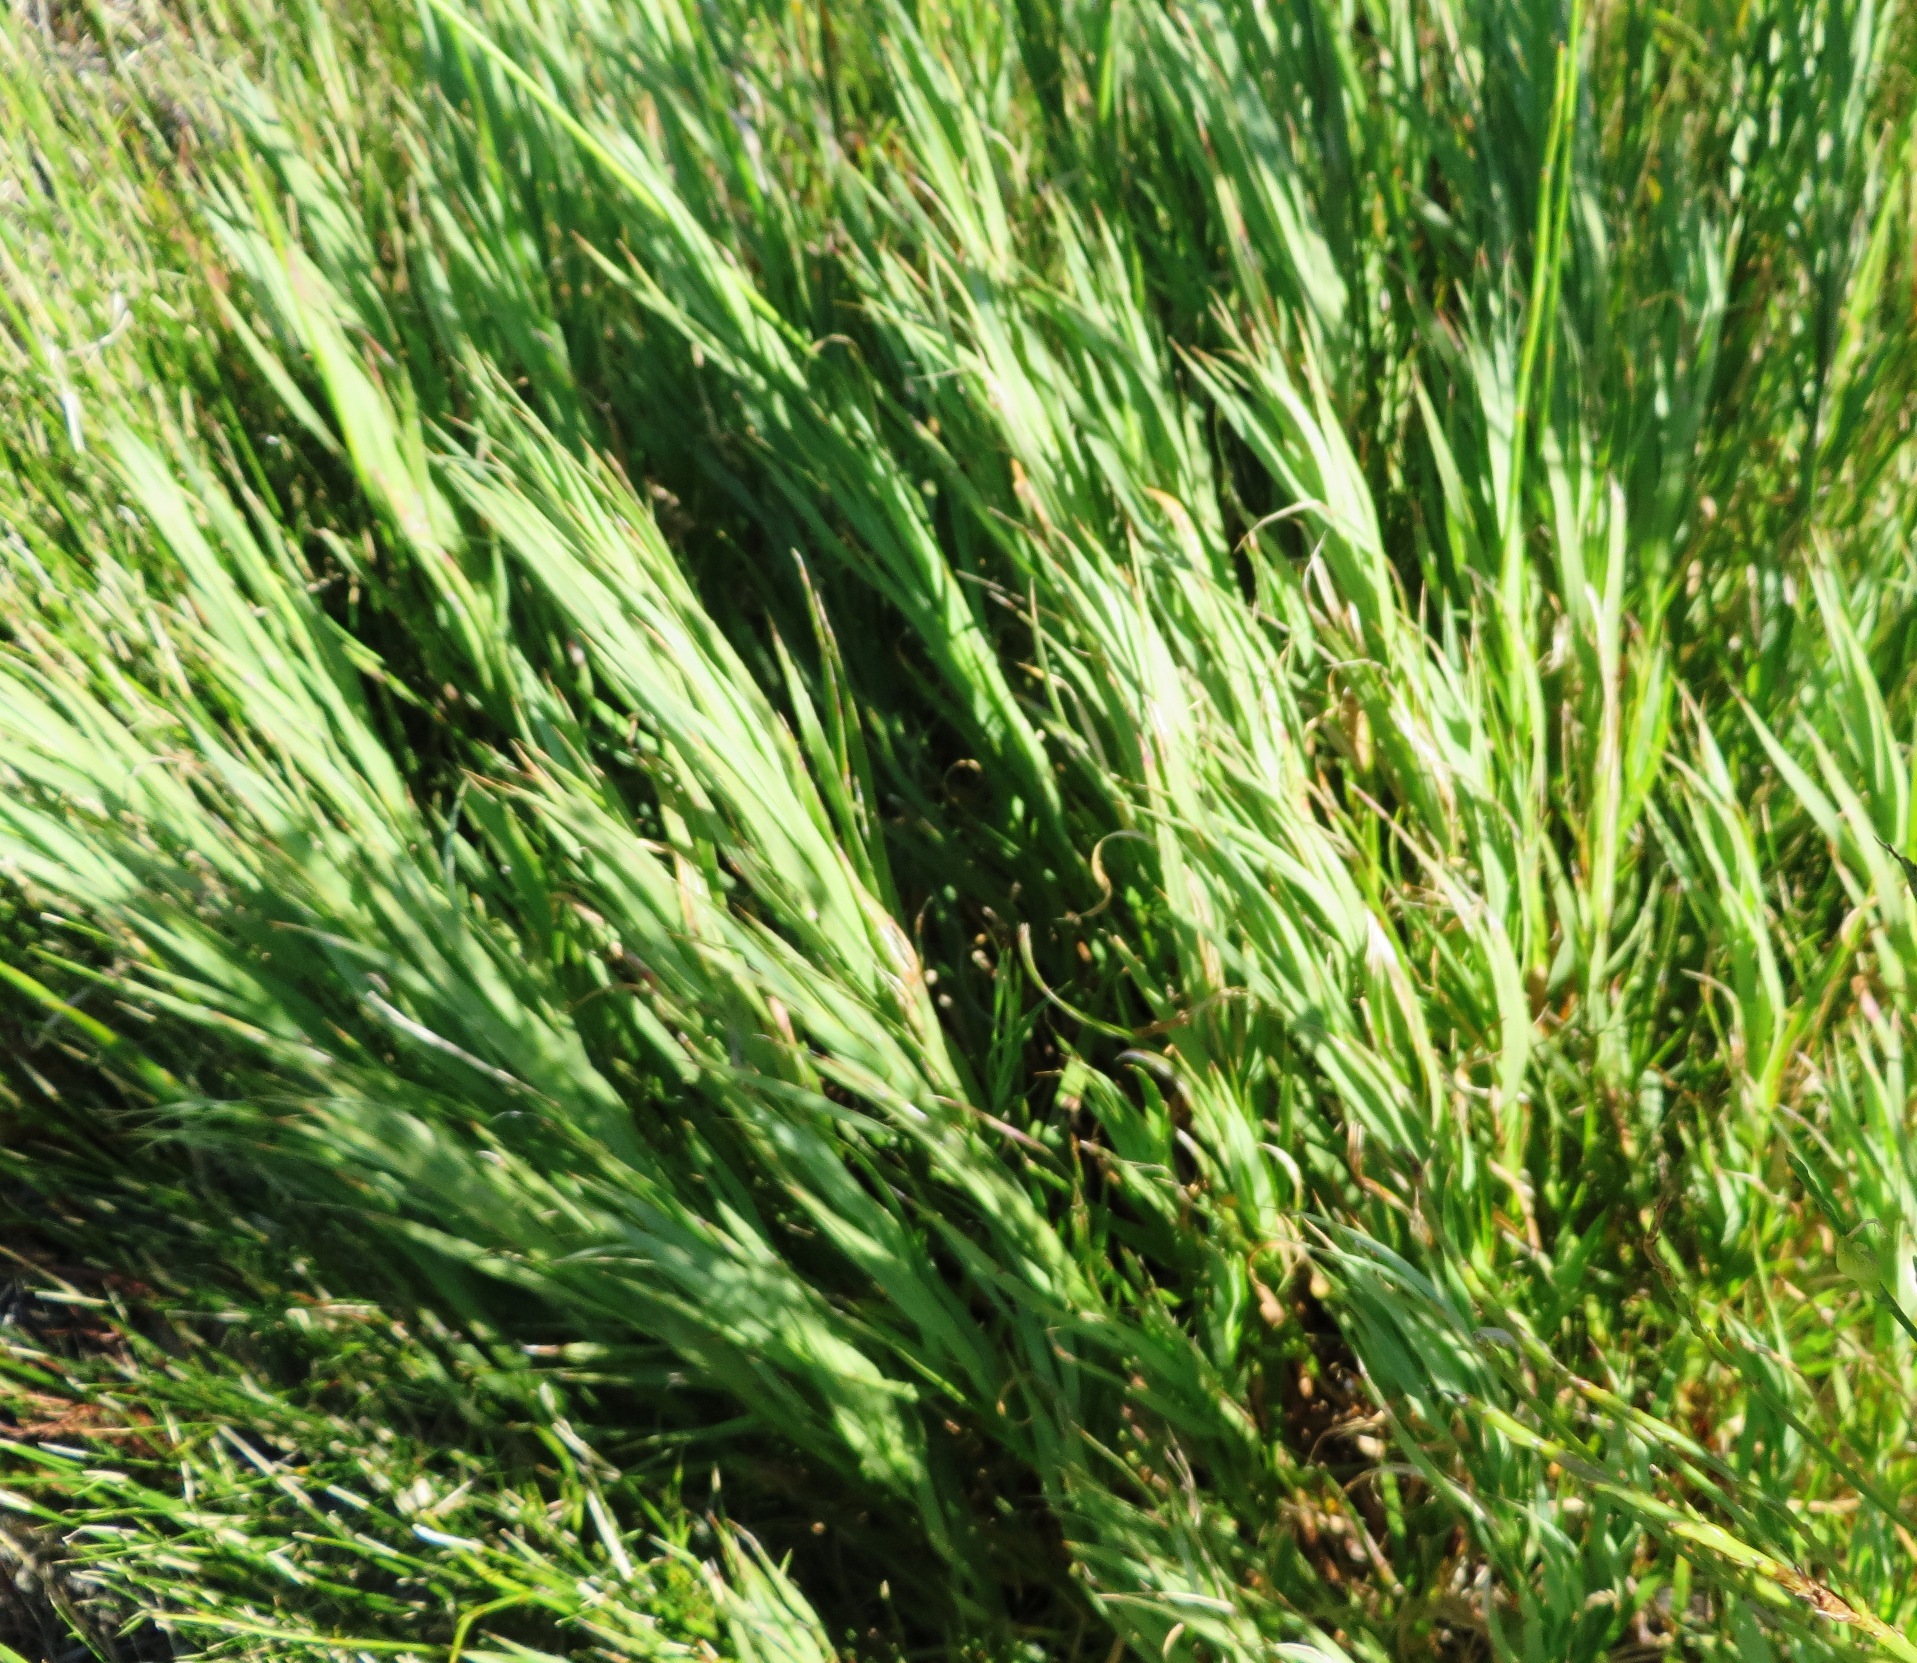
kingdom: Plantae
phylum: Tracheophyta
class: Magnoliopsida
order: Rosales
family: Rosaceae
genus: Cliffortia
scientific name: Cliffortia graminea
